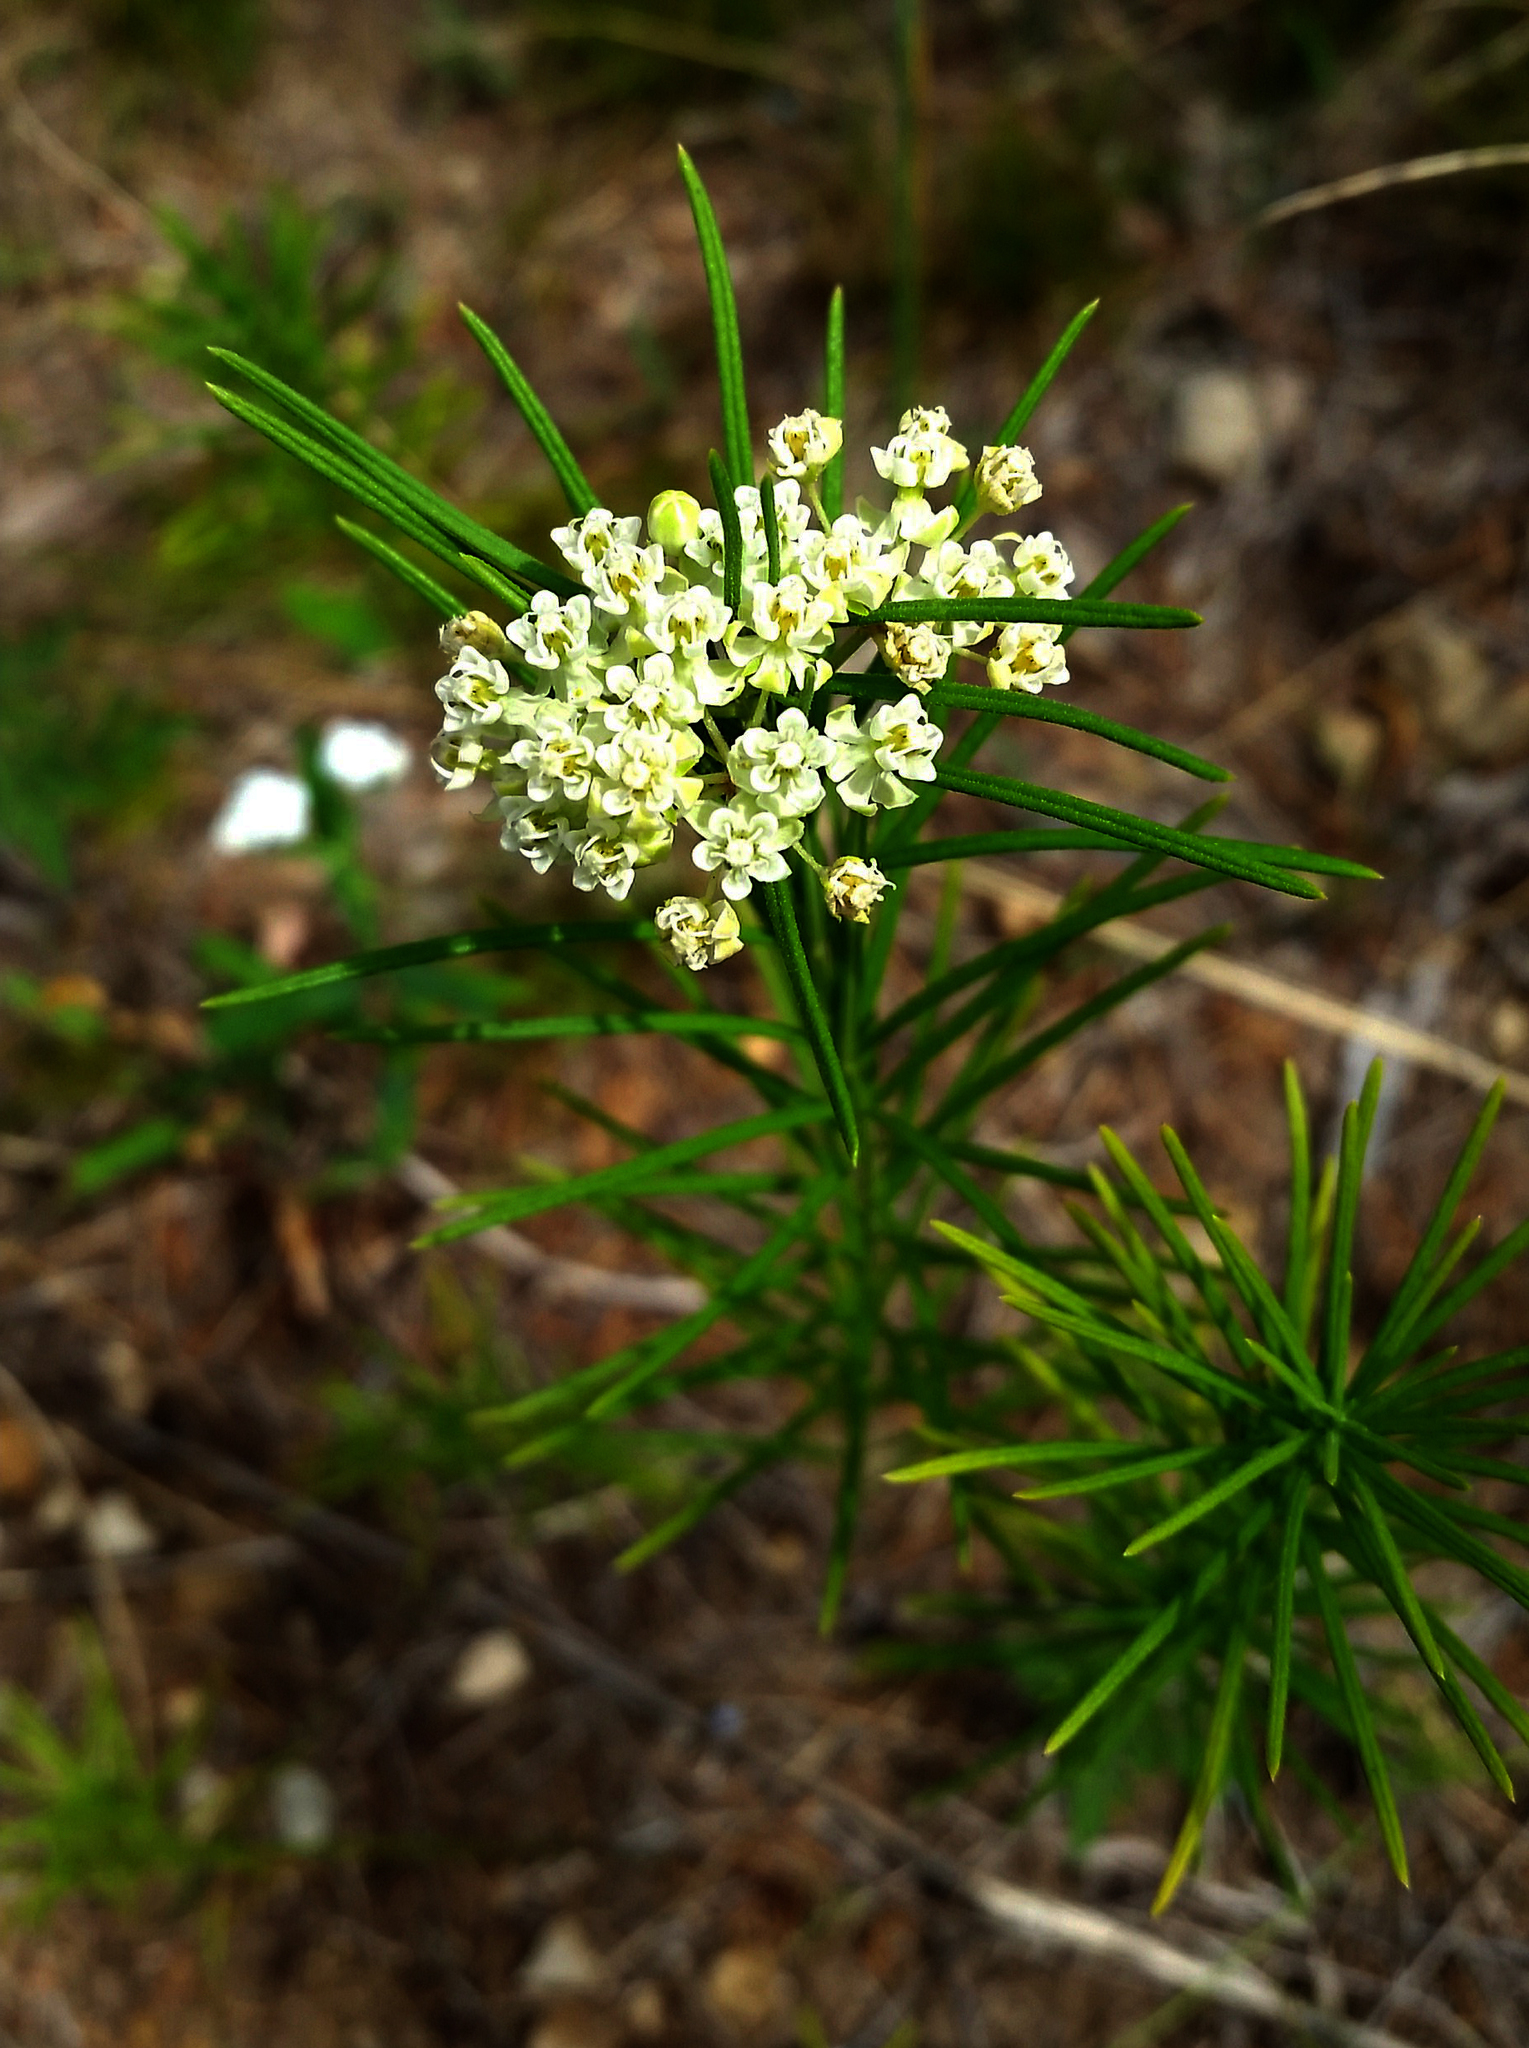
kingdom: Plantae
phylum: Tracheophyta
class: Magnoliopsida
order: Gentianales
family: Apocynaceae
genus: Asclepias
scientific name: Asclepias verticillata
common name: Eastern whorled milkweed
